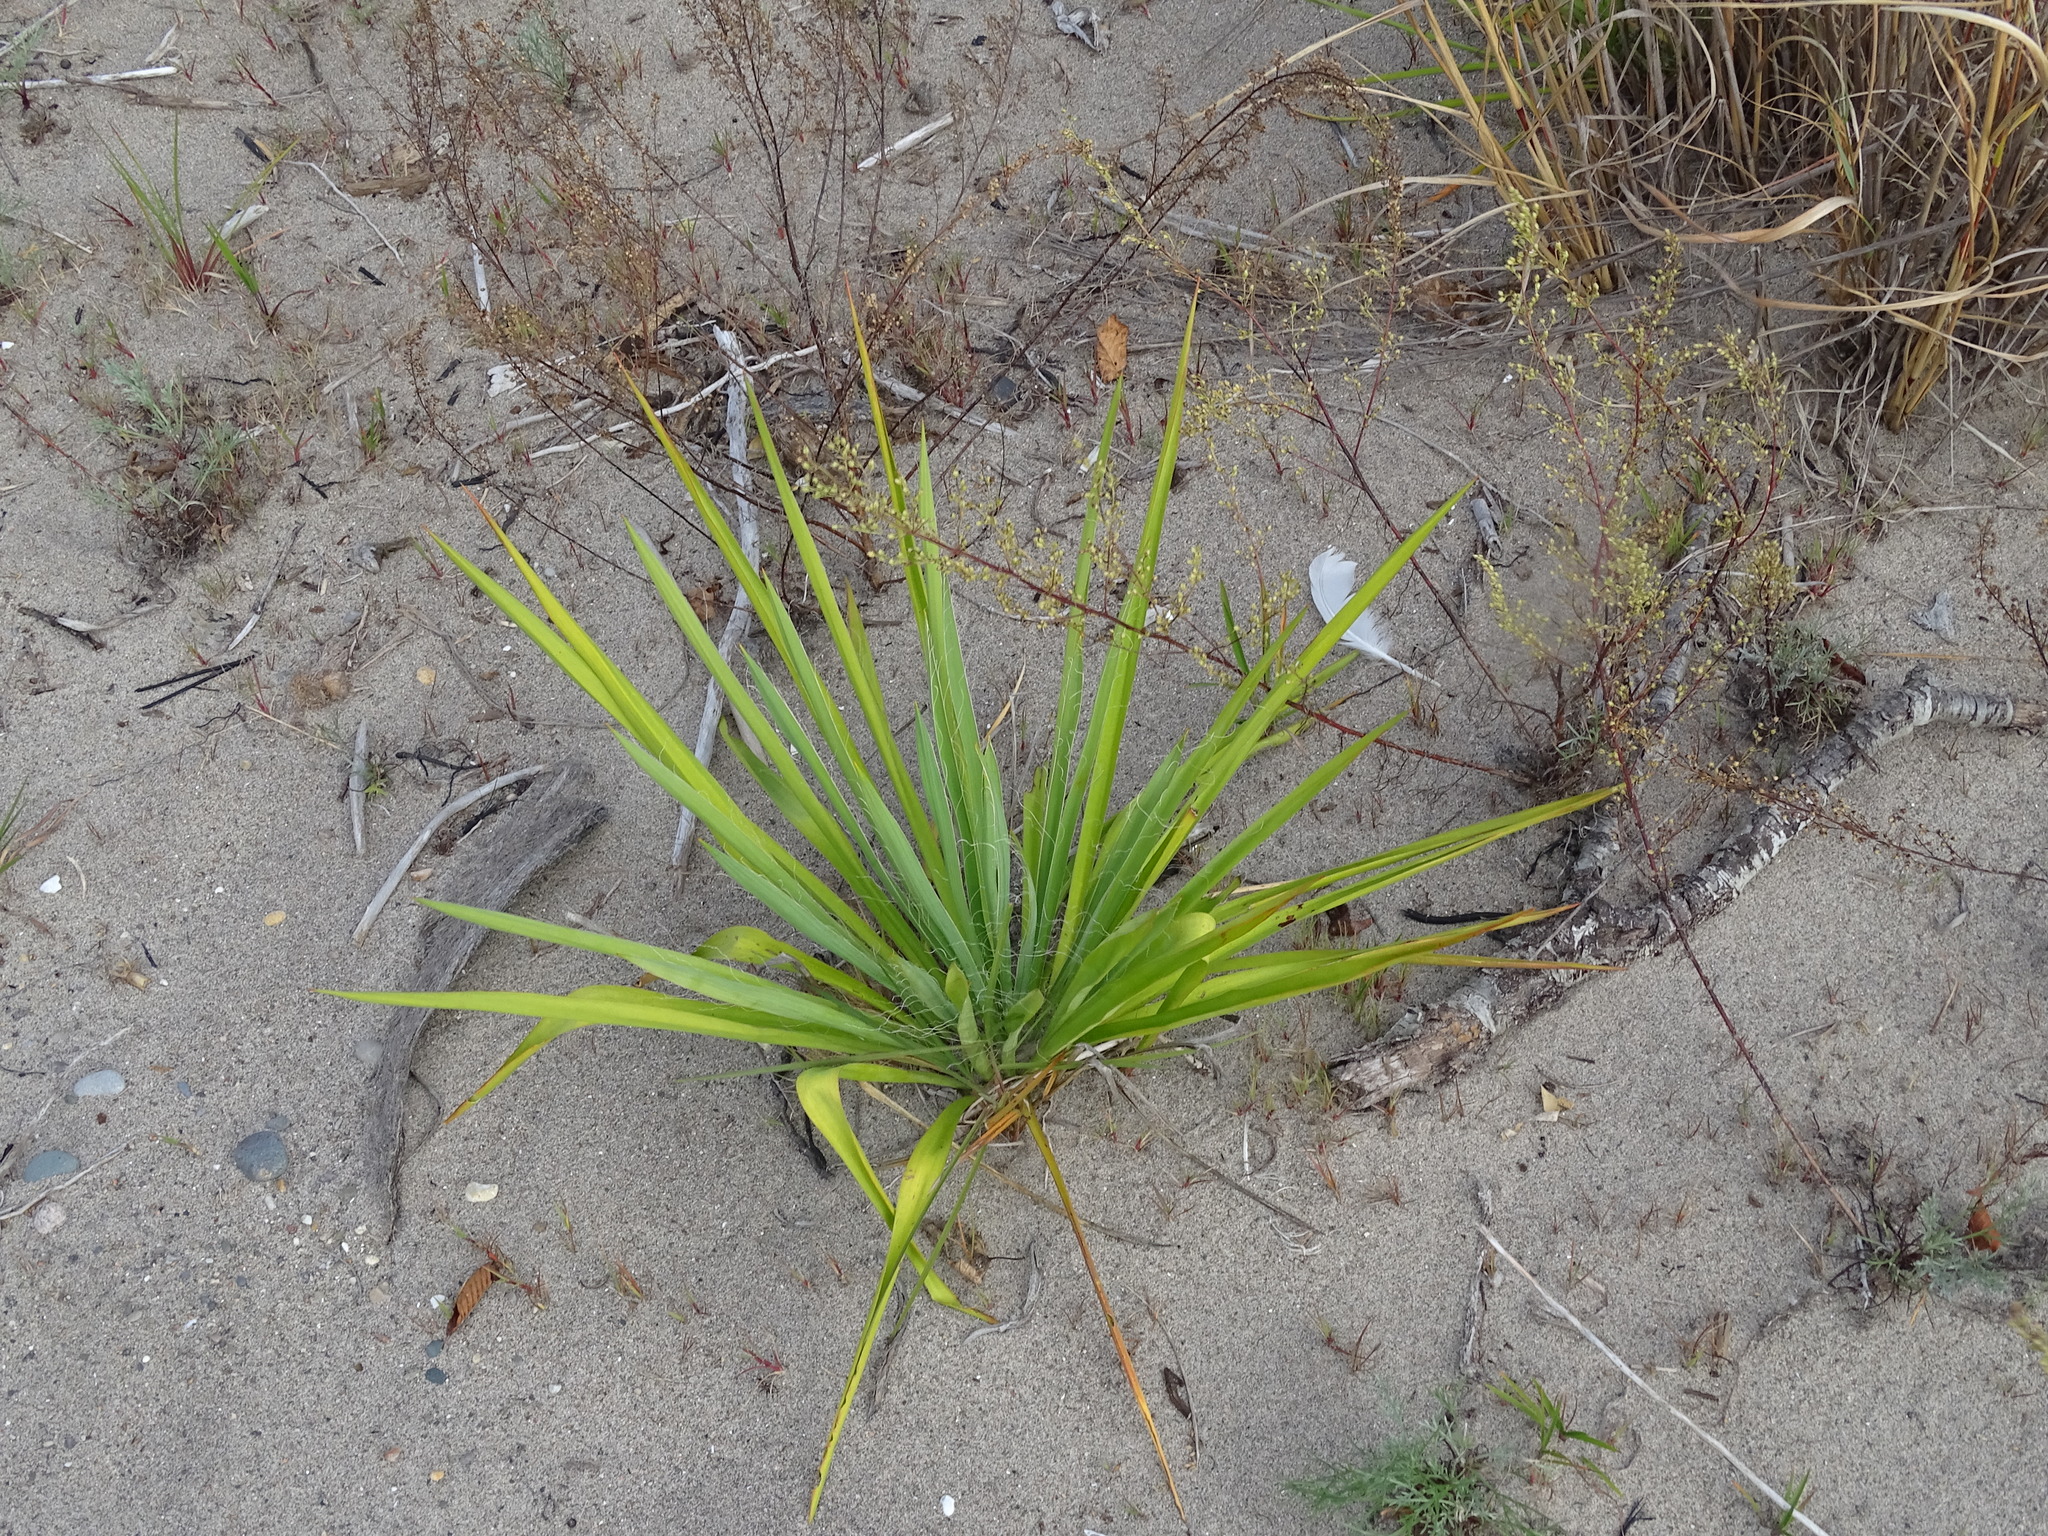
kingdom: Plantae
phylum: Tracheophyta
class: Liliopsida
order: Asparagales
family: Asparagaceae
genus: Yucca
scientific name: Yucca filamentosa
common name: Adam's-needle
